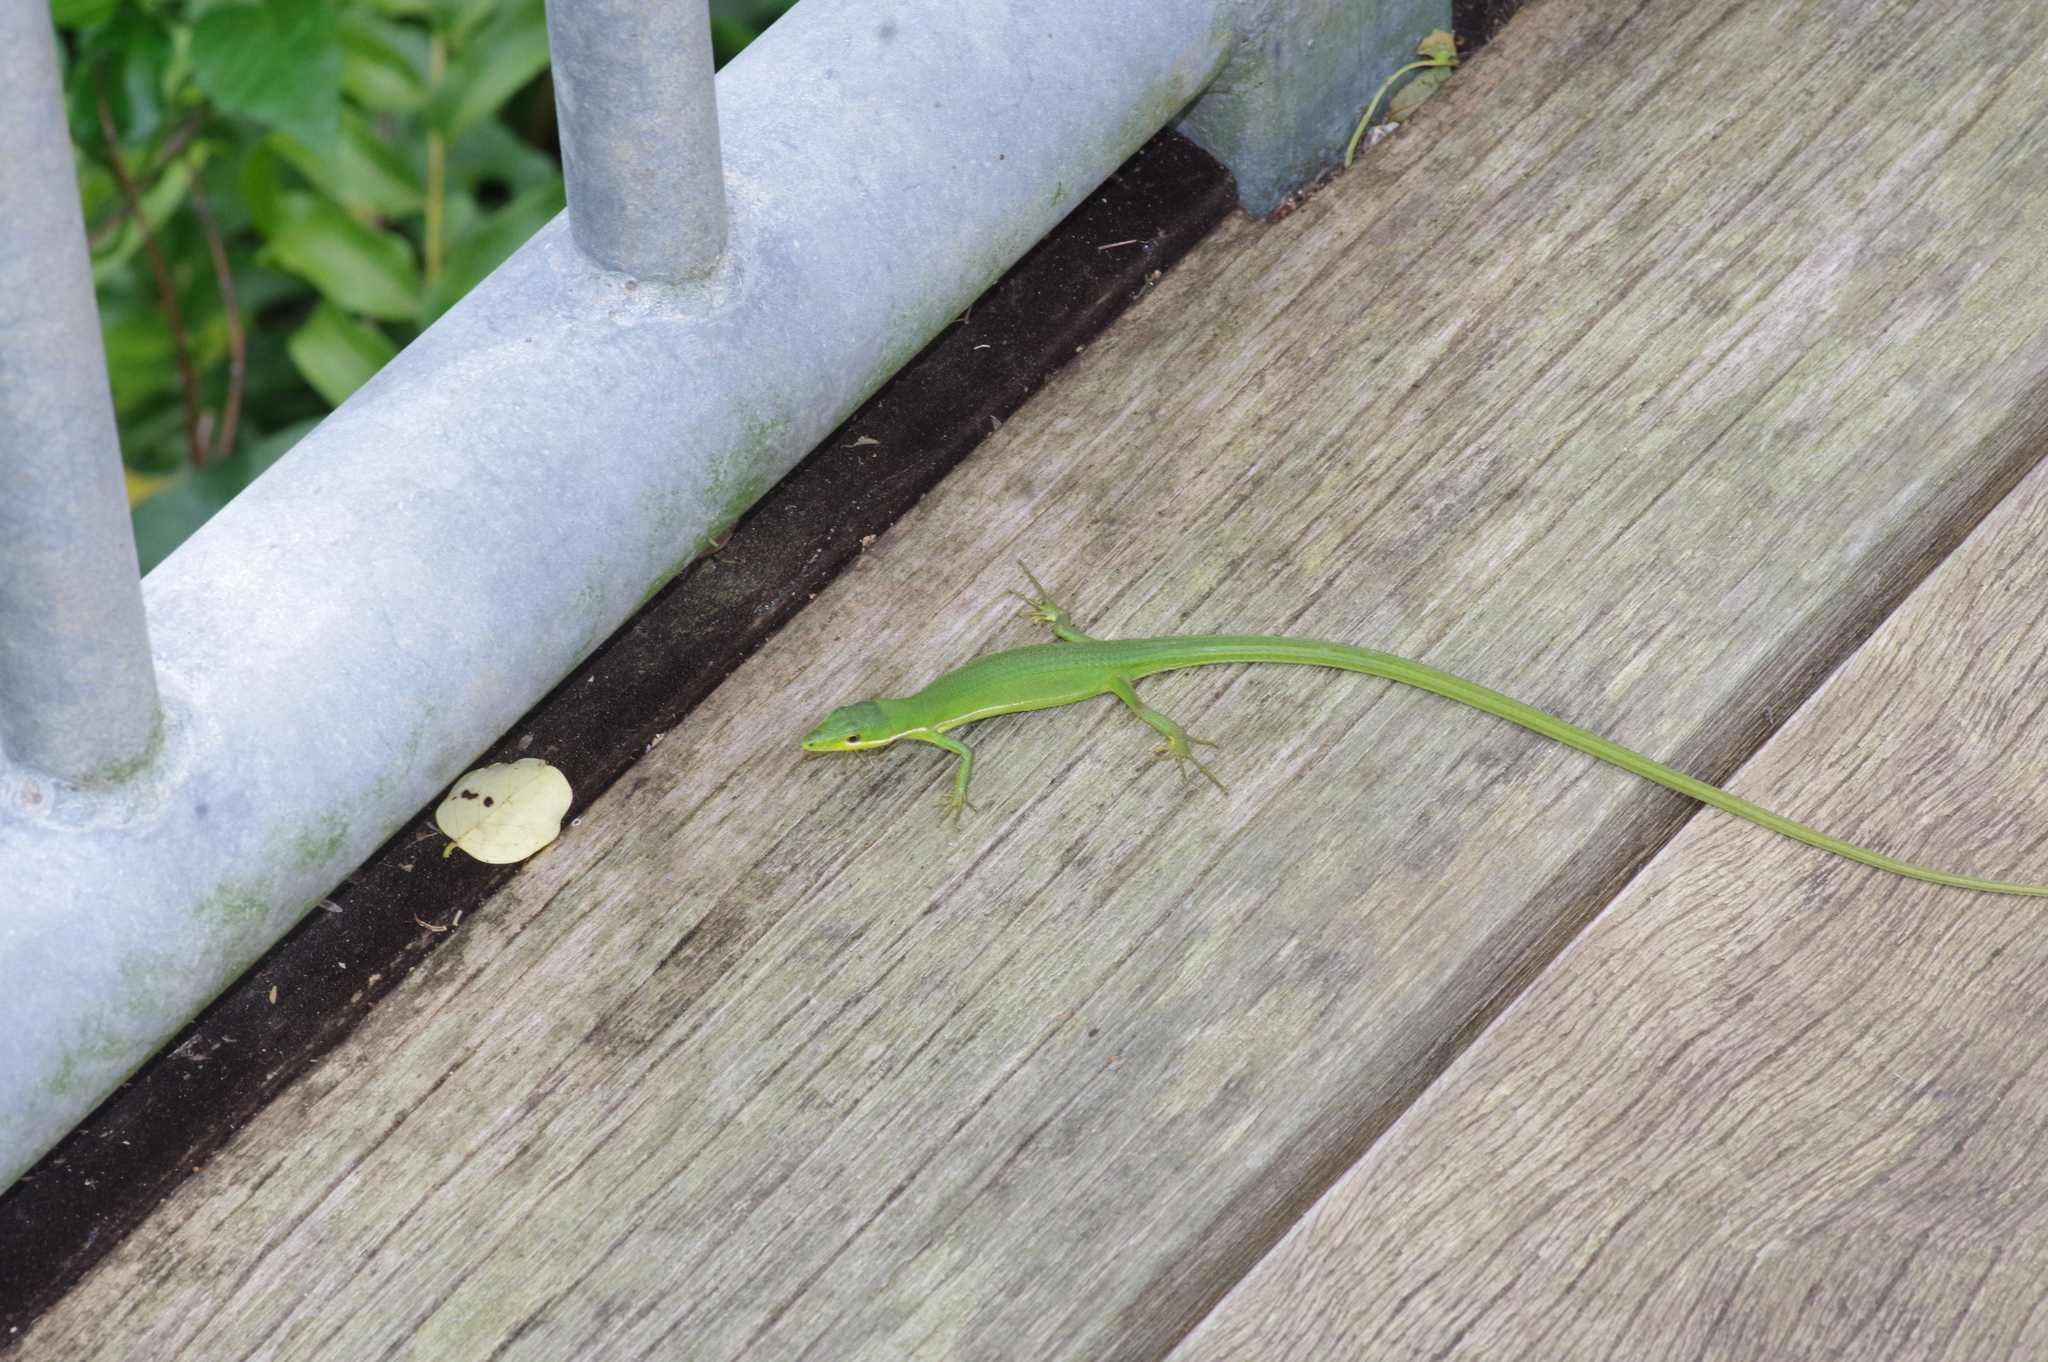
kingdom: Animalia
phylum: Chordata
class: Squamata
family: Lacertidae
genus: Takydromus
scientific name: Takydromus smaragdinus
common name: Green grass lizard
